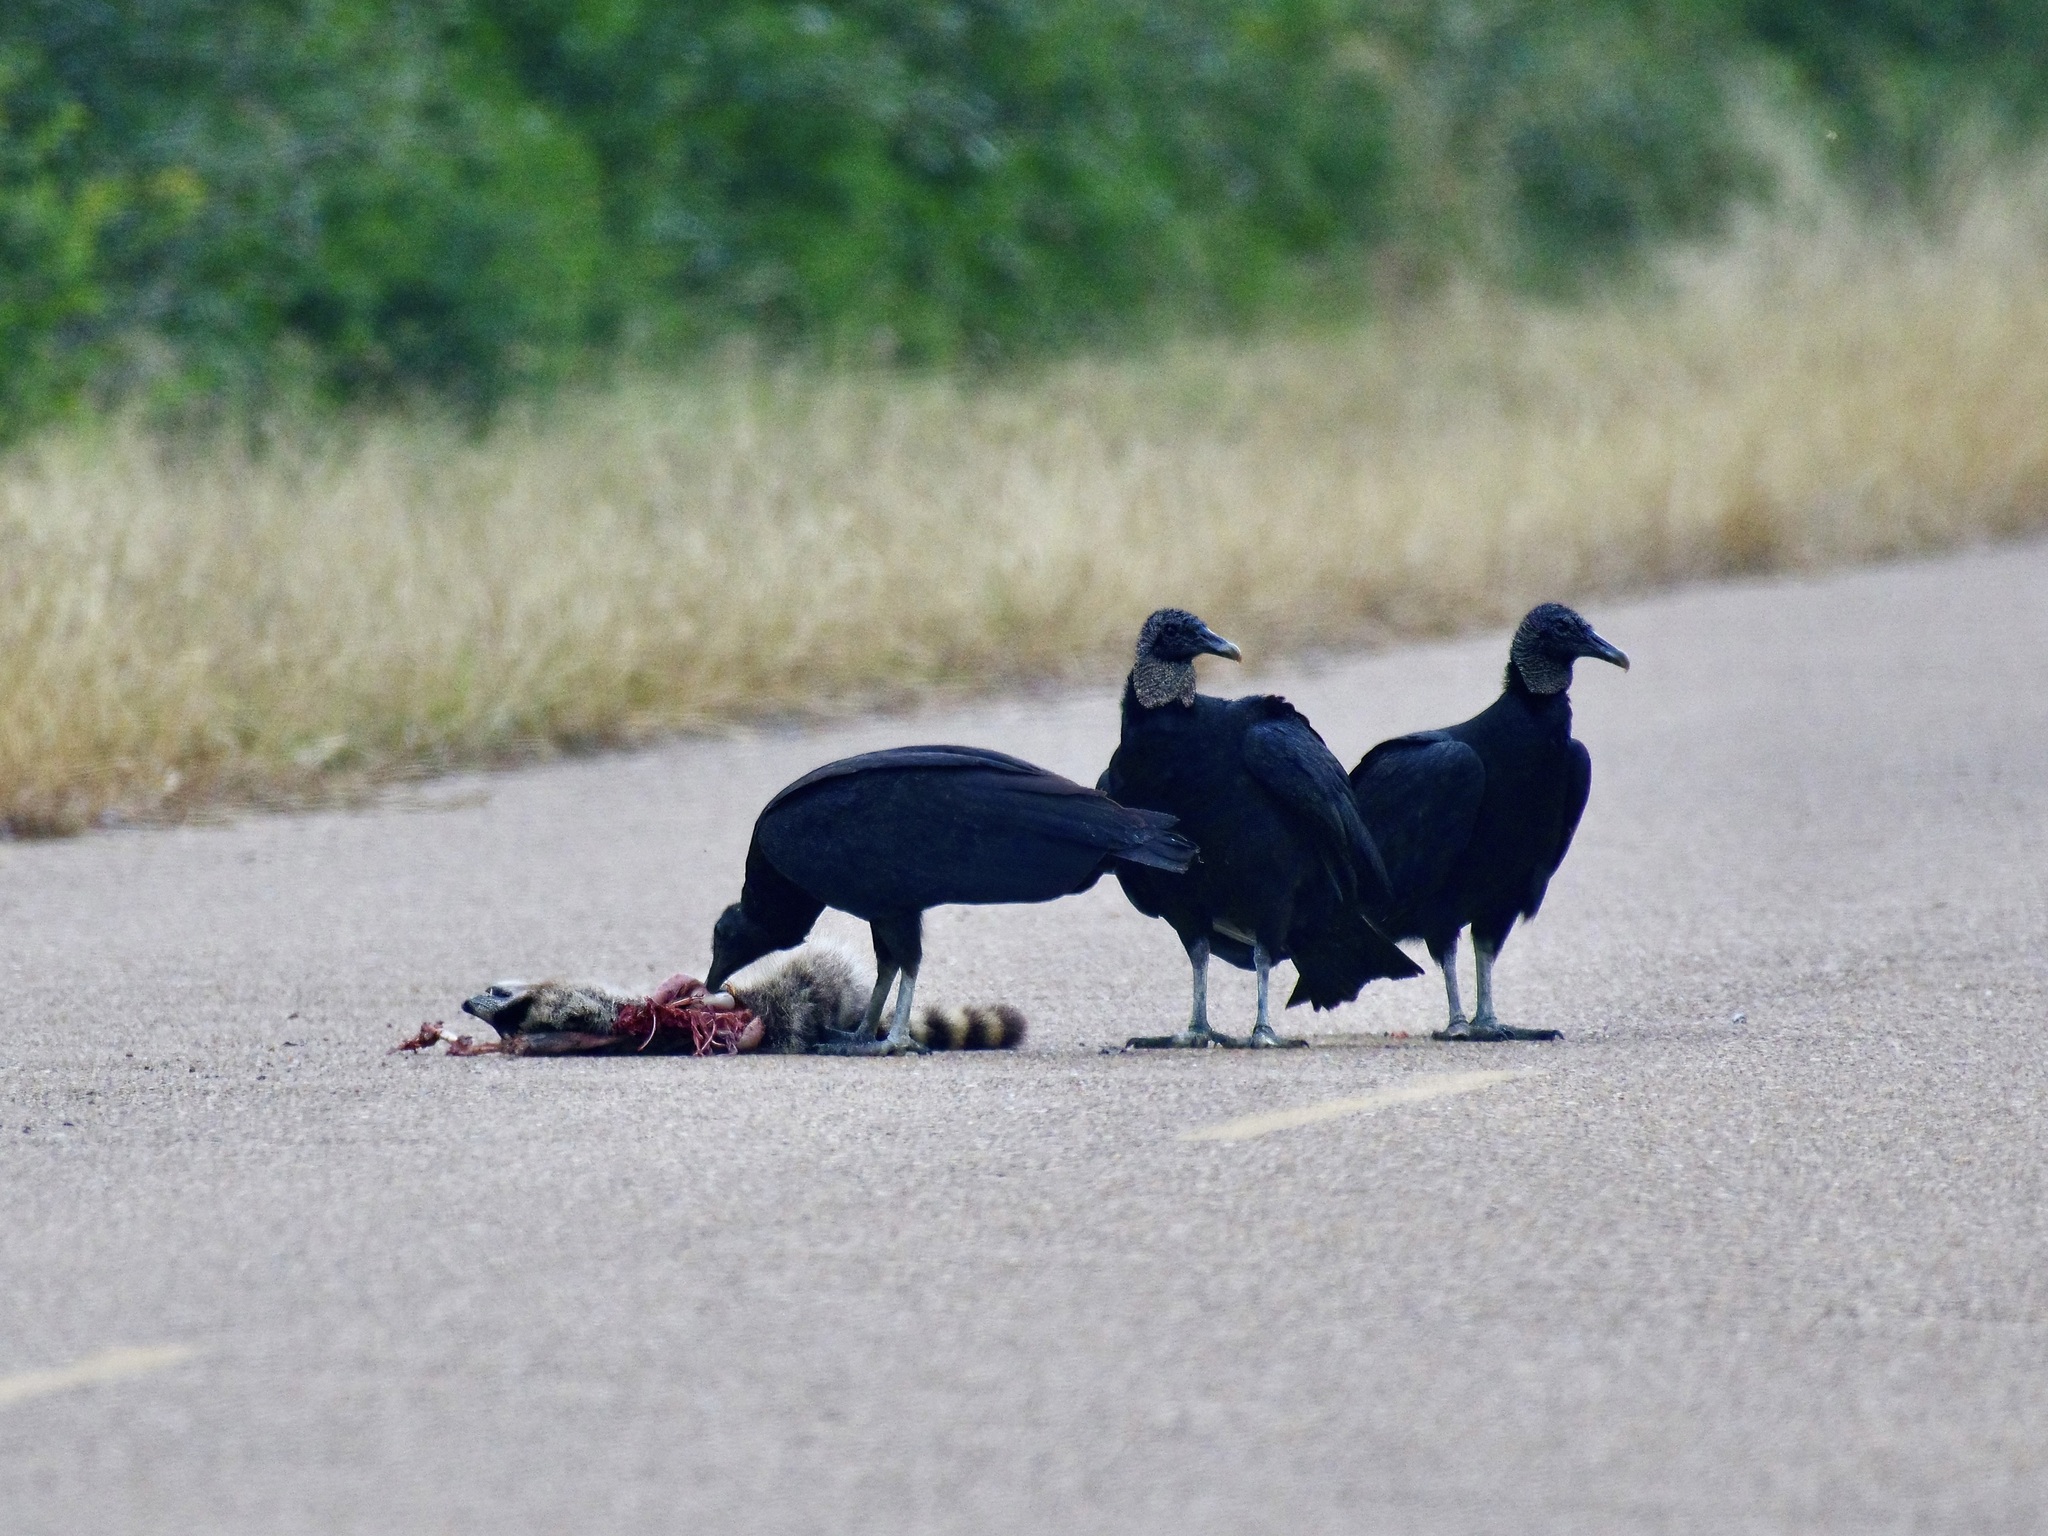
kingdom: Animalia
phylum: Chordata
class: Aves
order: Accipitriformes
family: Cathartidae
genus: Coragyps
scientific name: Coragyps atratus
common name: Black vulture
